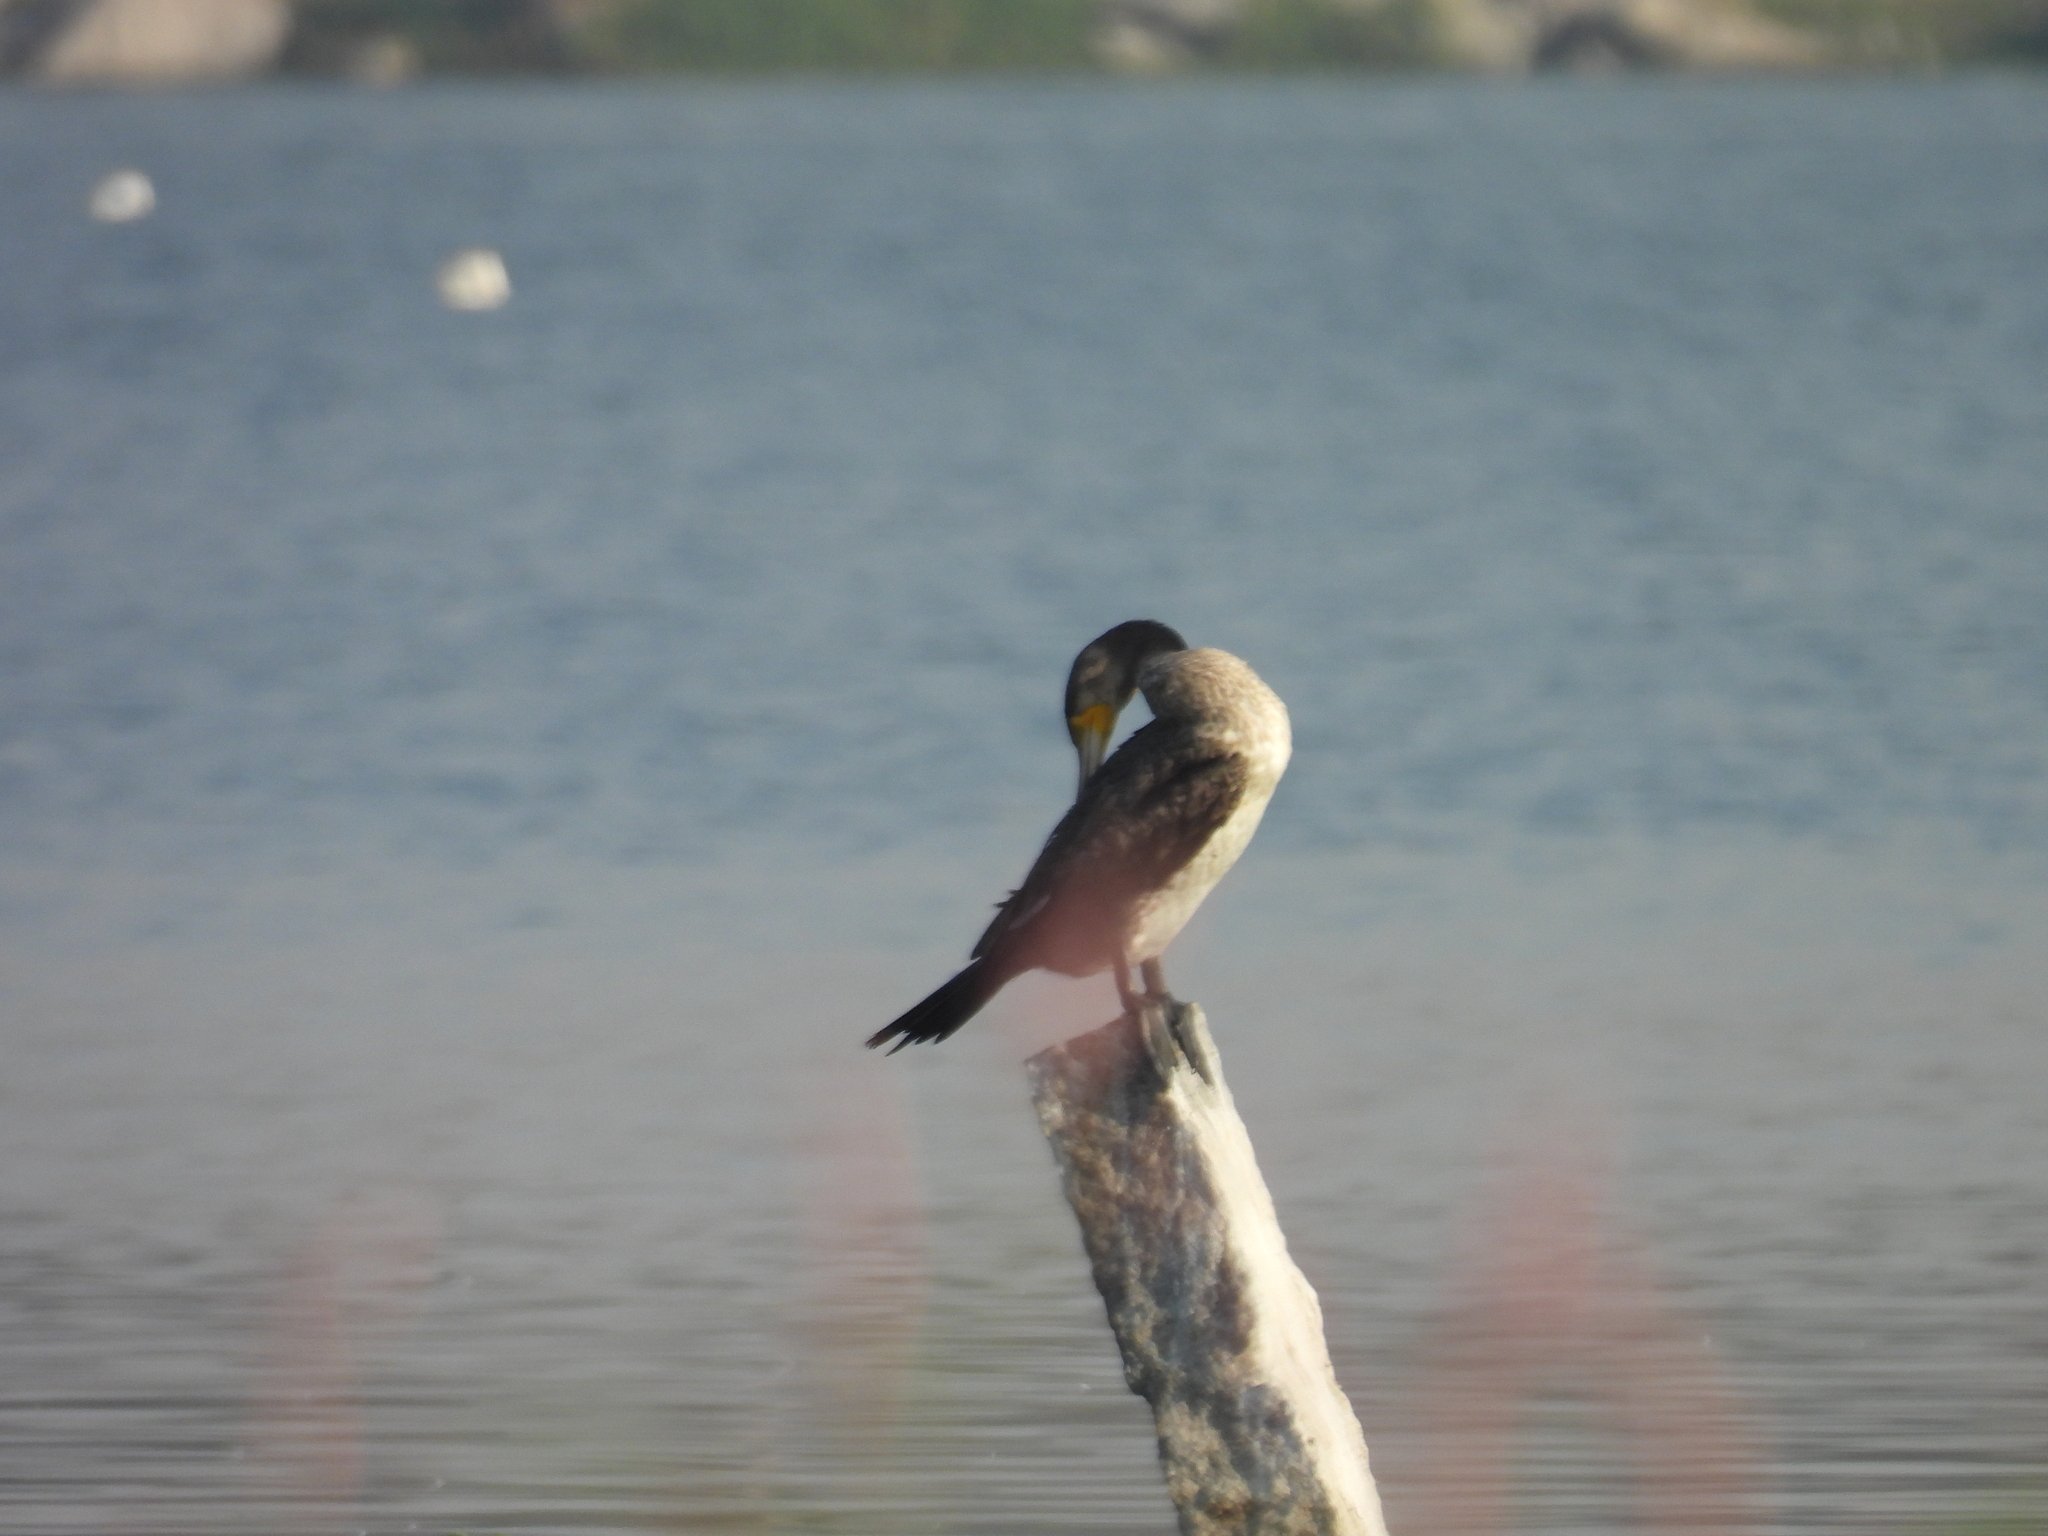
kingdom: Animalia
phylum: Chordata
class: Aves
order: Suliformes
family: Phalacrocoracidae
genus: Phalacrocorax
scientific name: Phalacrocorax carbo
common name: Great cormorant
